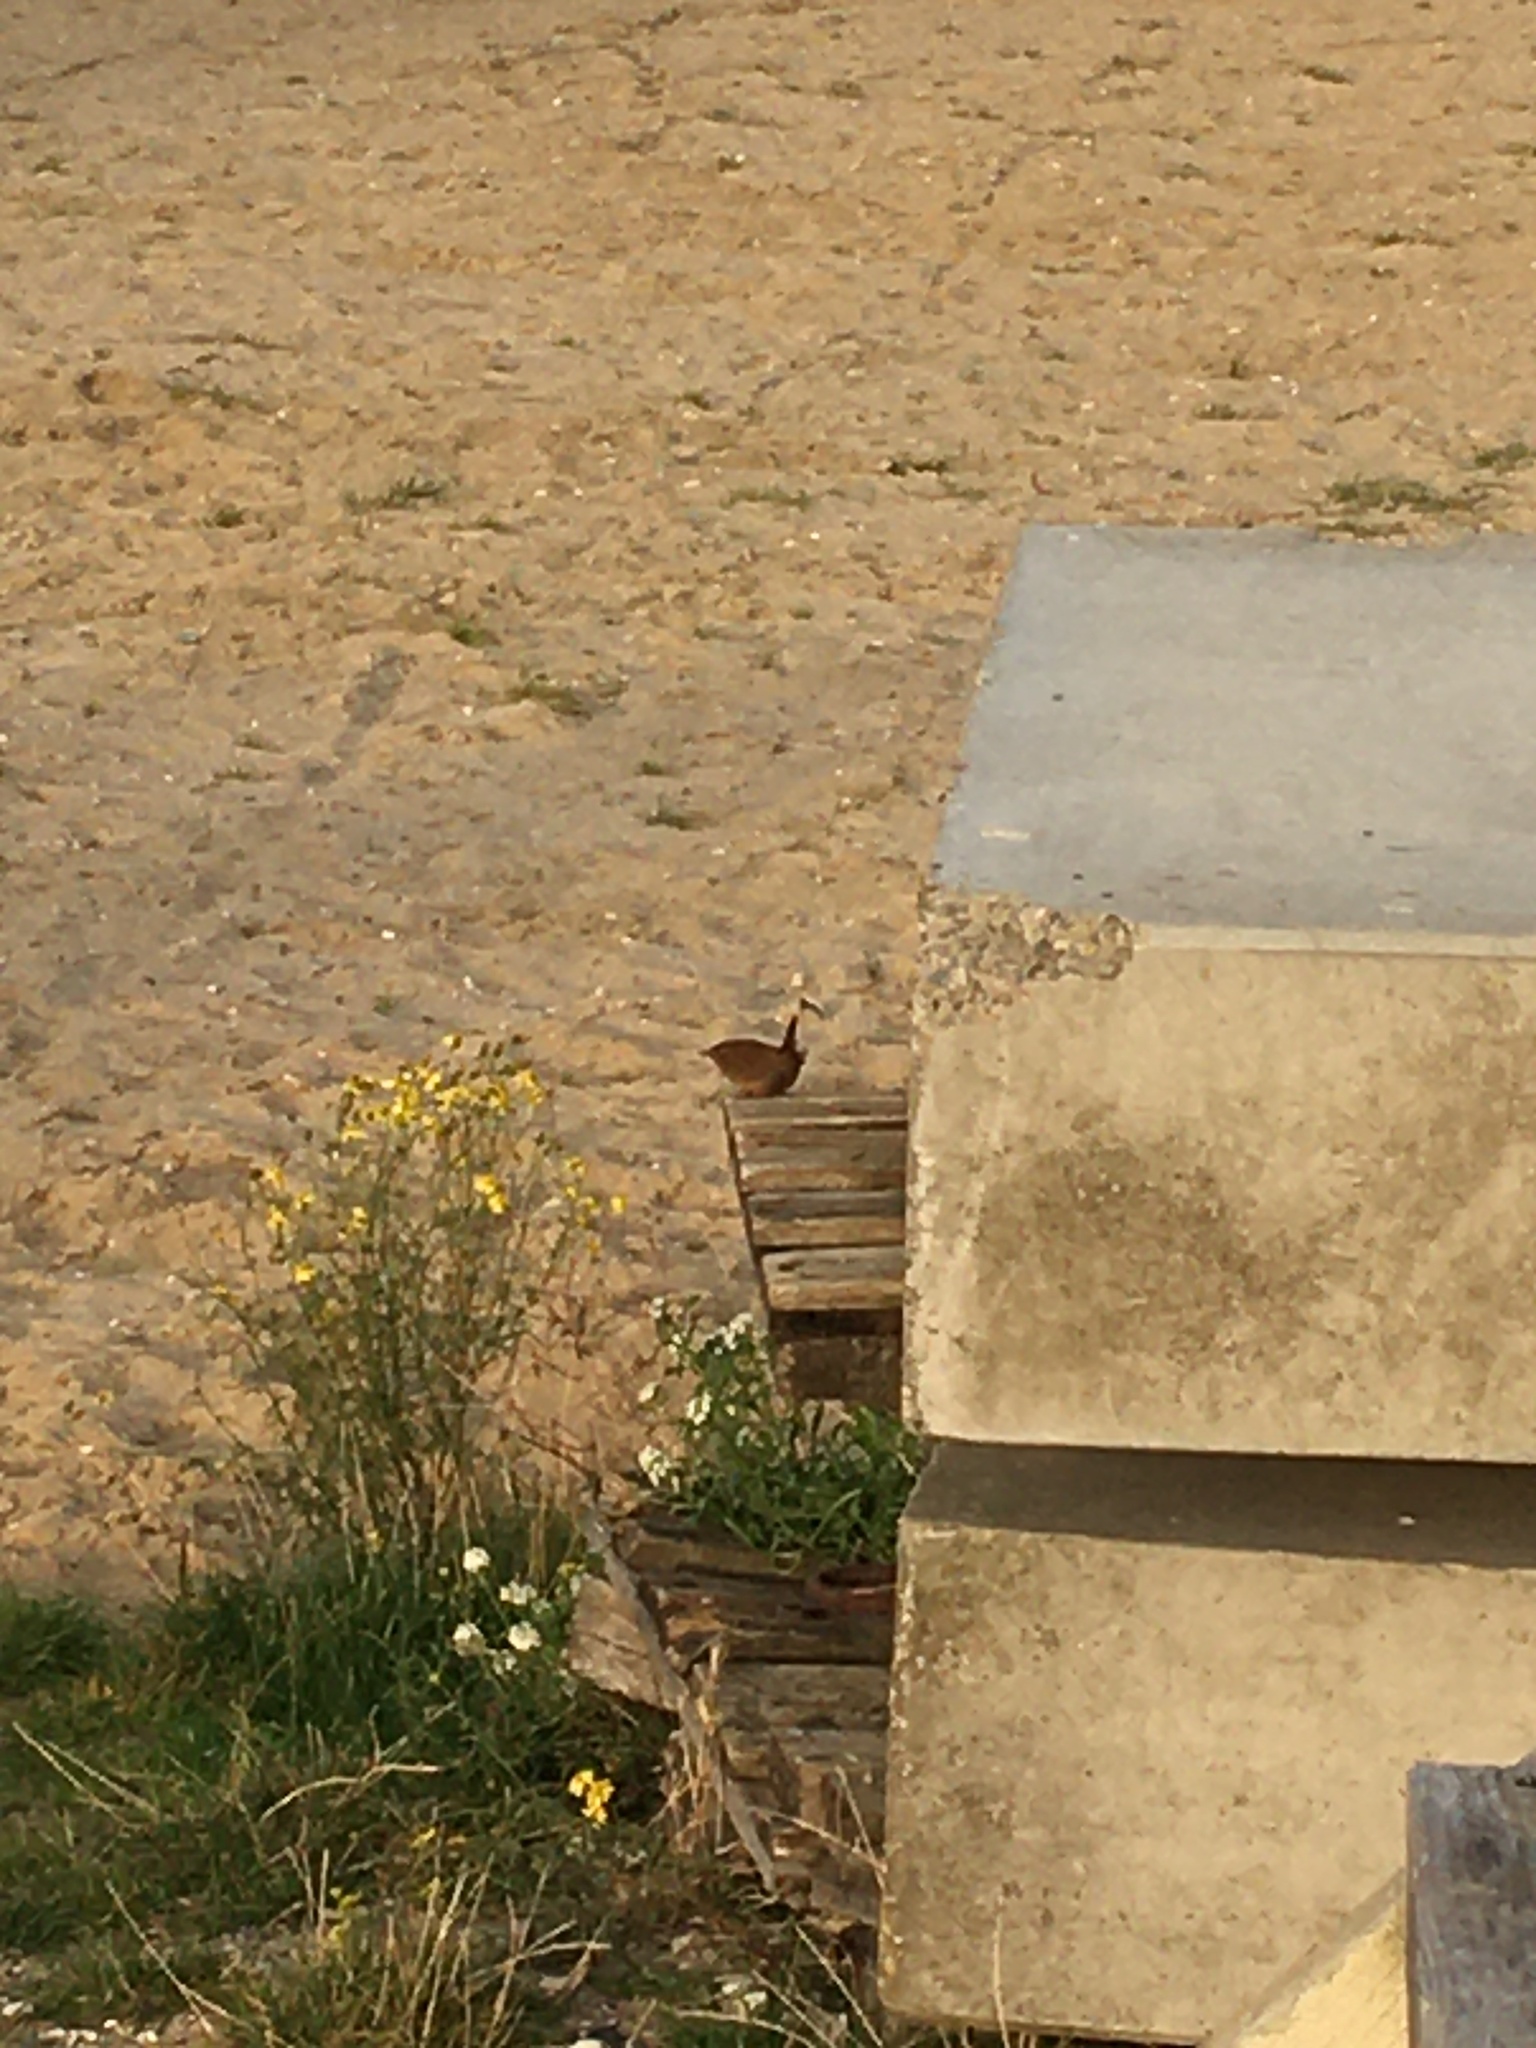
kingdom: Animalia
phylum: Chordata
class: Aves
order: Passeriformes
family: Troglodytidae
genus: Troglodytes
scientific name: Troglodytes troglodytes
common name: Eurasian wren
